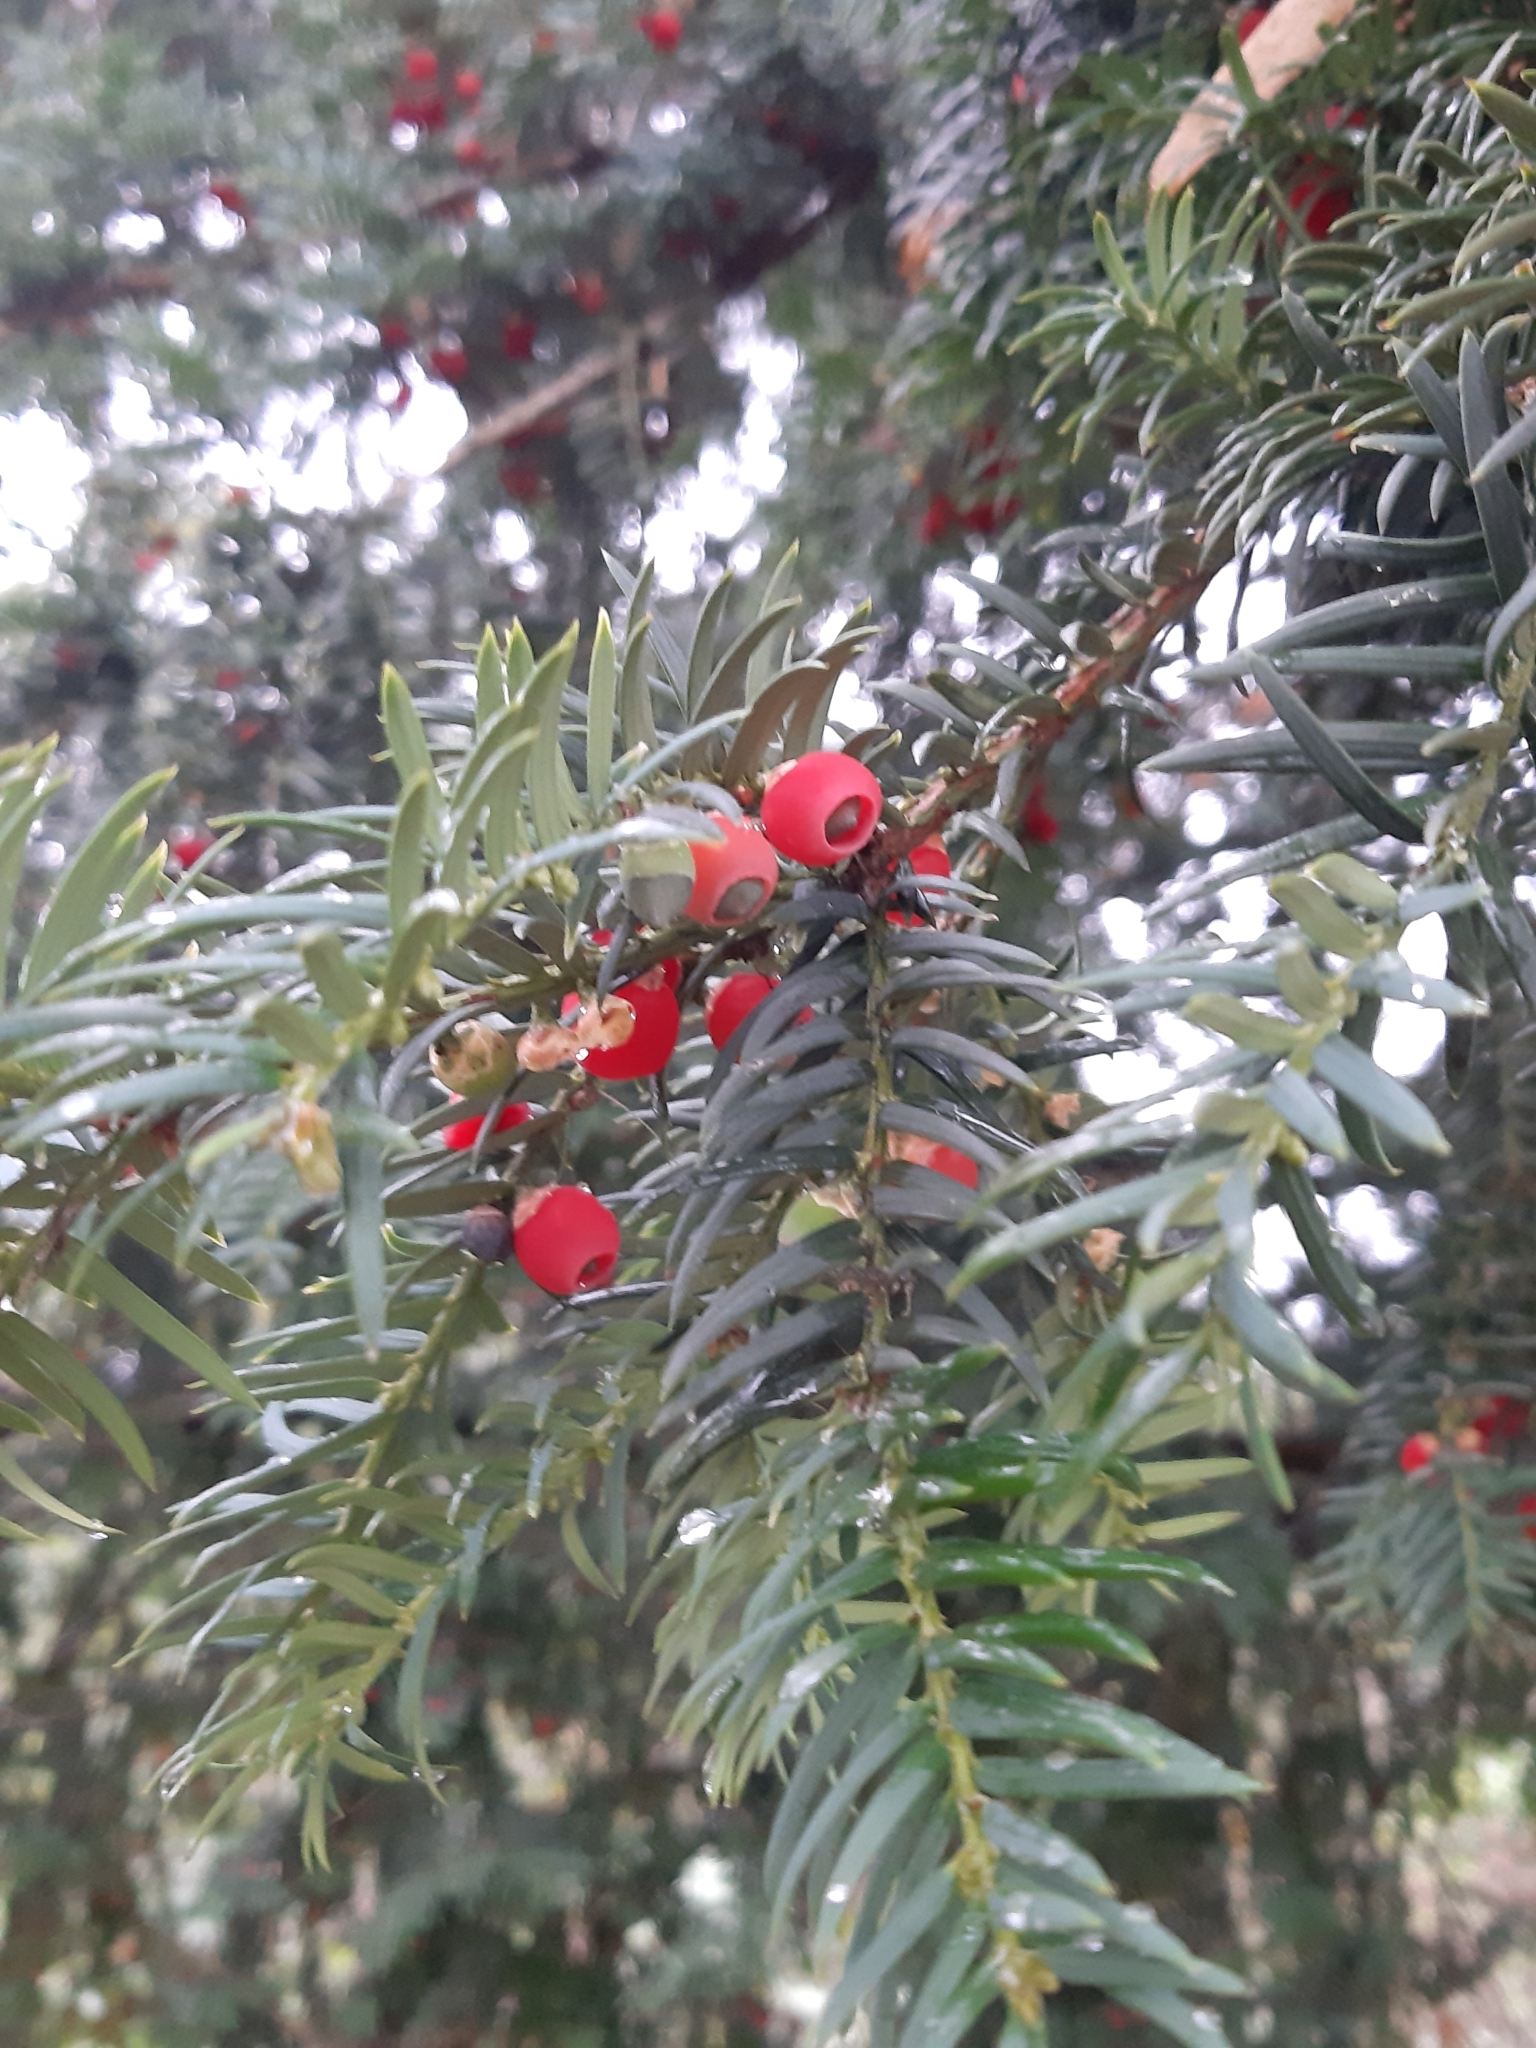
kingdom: Plantae
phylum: Tracheophyta
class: Pinopsida
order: Pinales
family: Taxaceae
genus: Taxus
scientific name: Taxus baccata
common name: Yew
